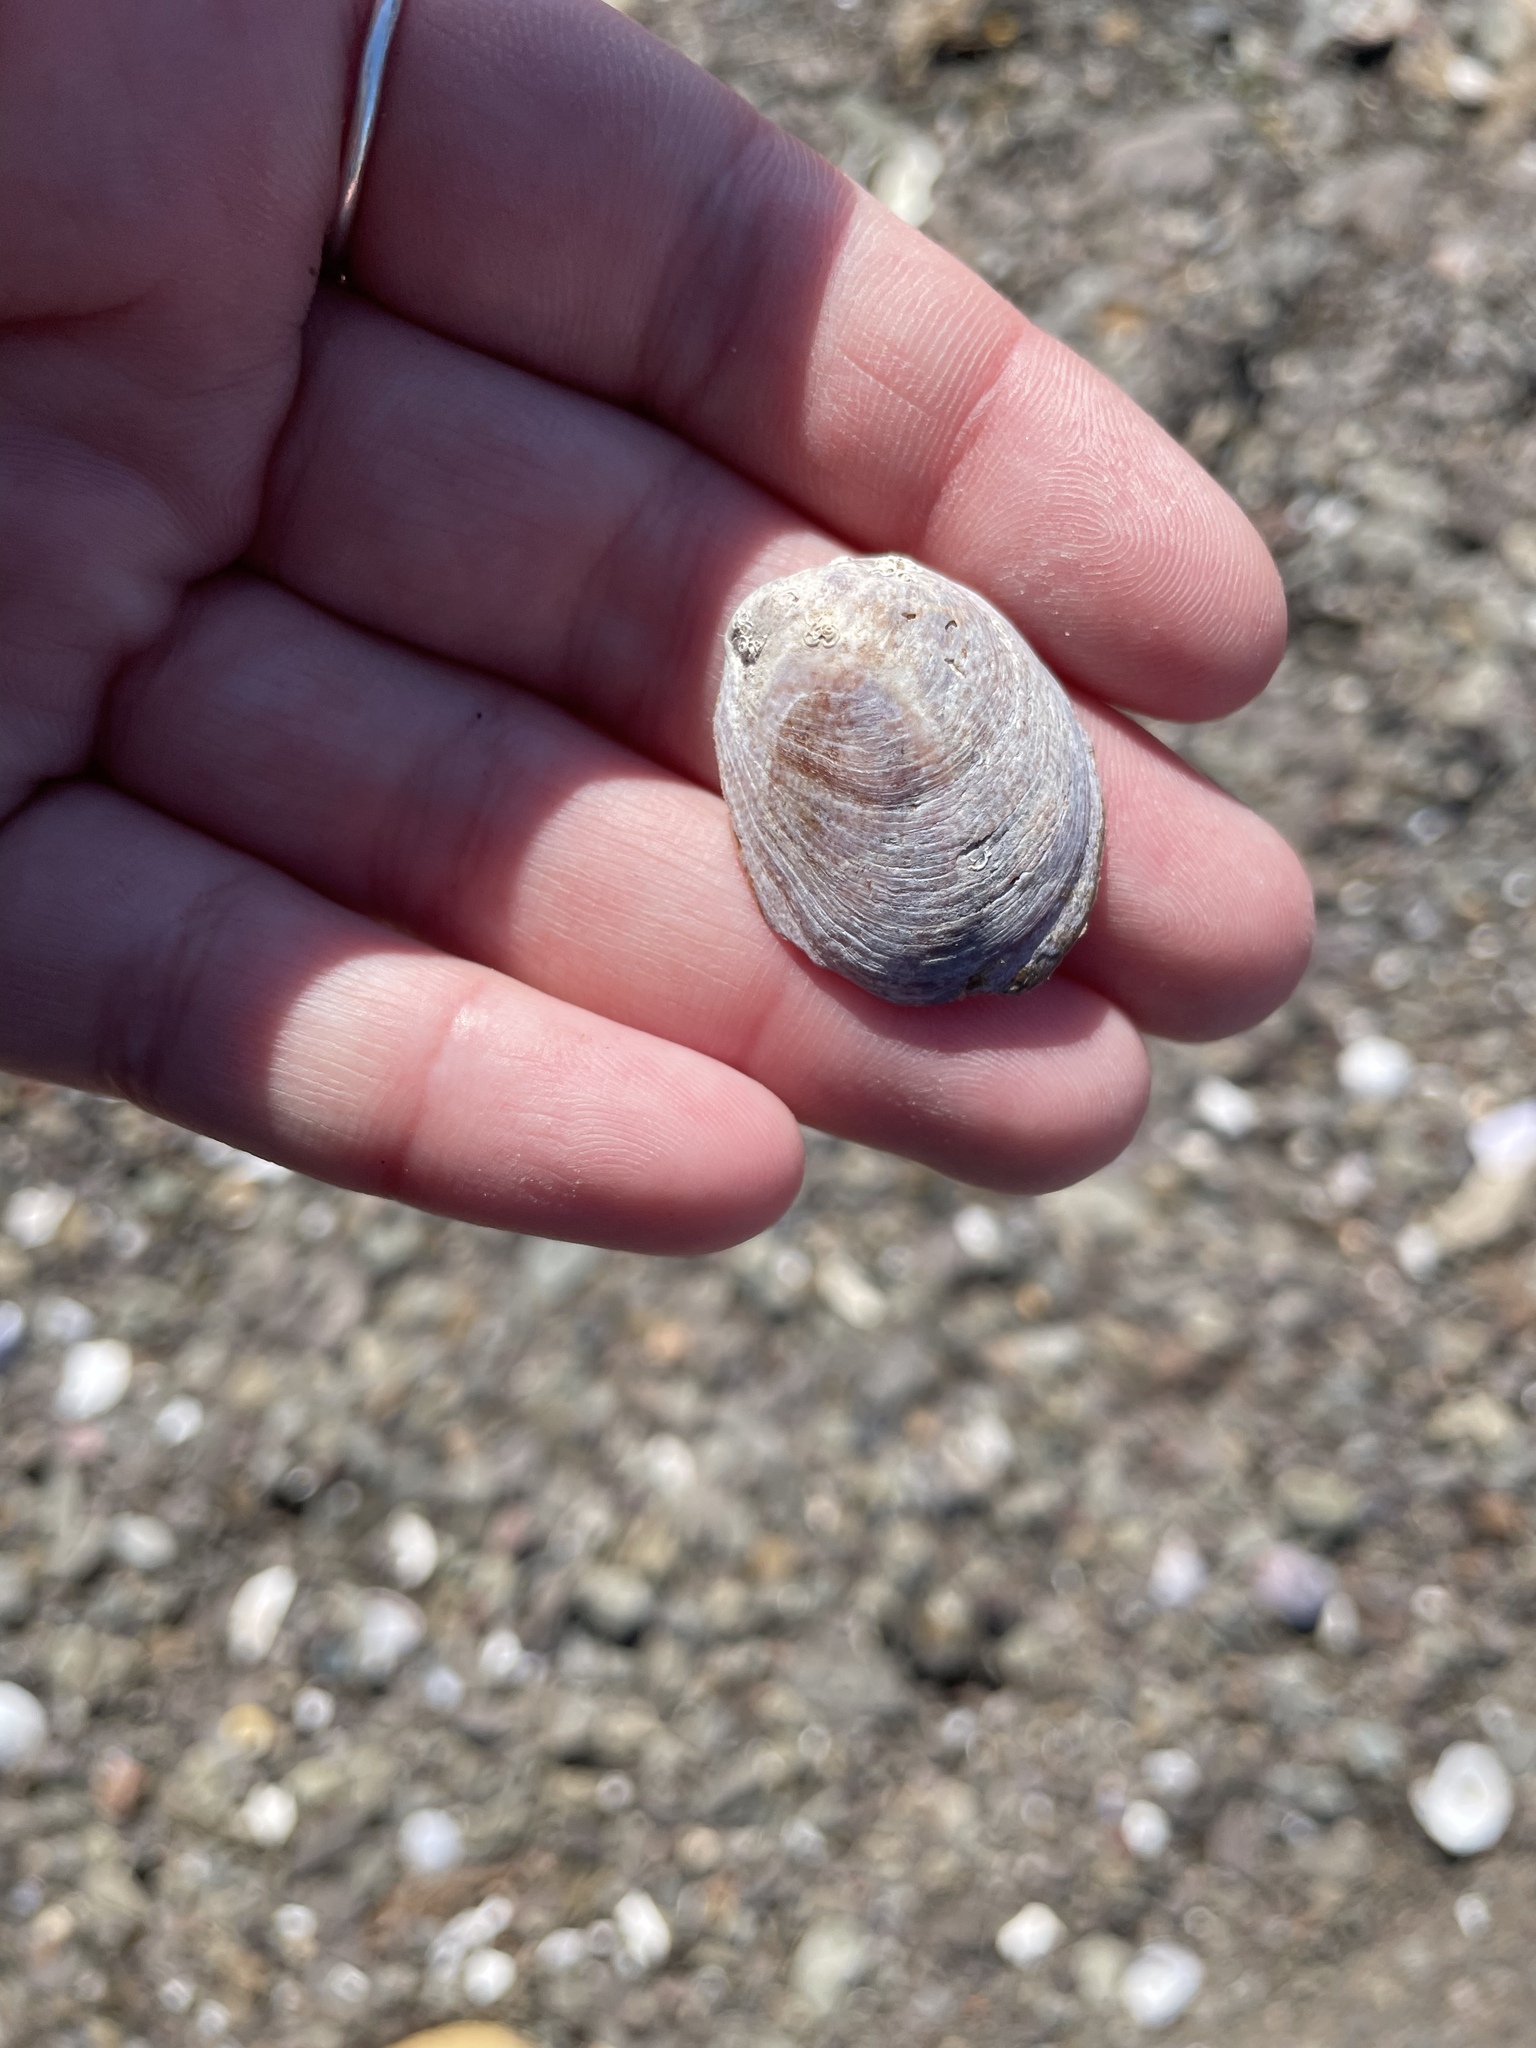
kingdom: Animalia
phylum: Mollusca
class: Gastropoda
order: Littorinimorpha
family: Calyptraeidae
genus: Crepidula
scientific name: Crepidula fornicata
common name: Slipper limpet
